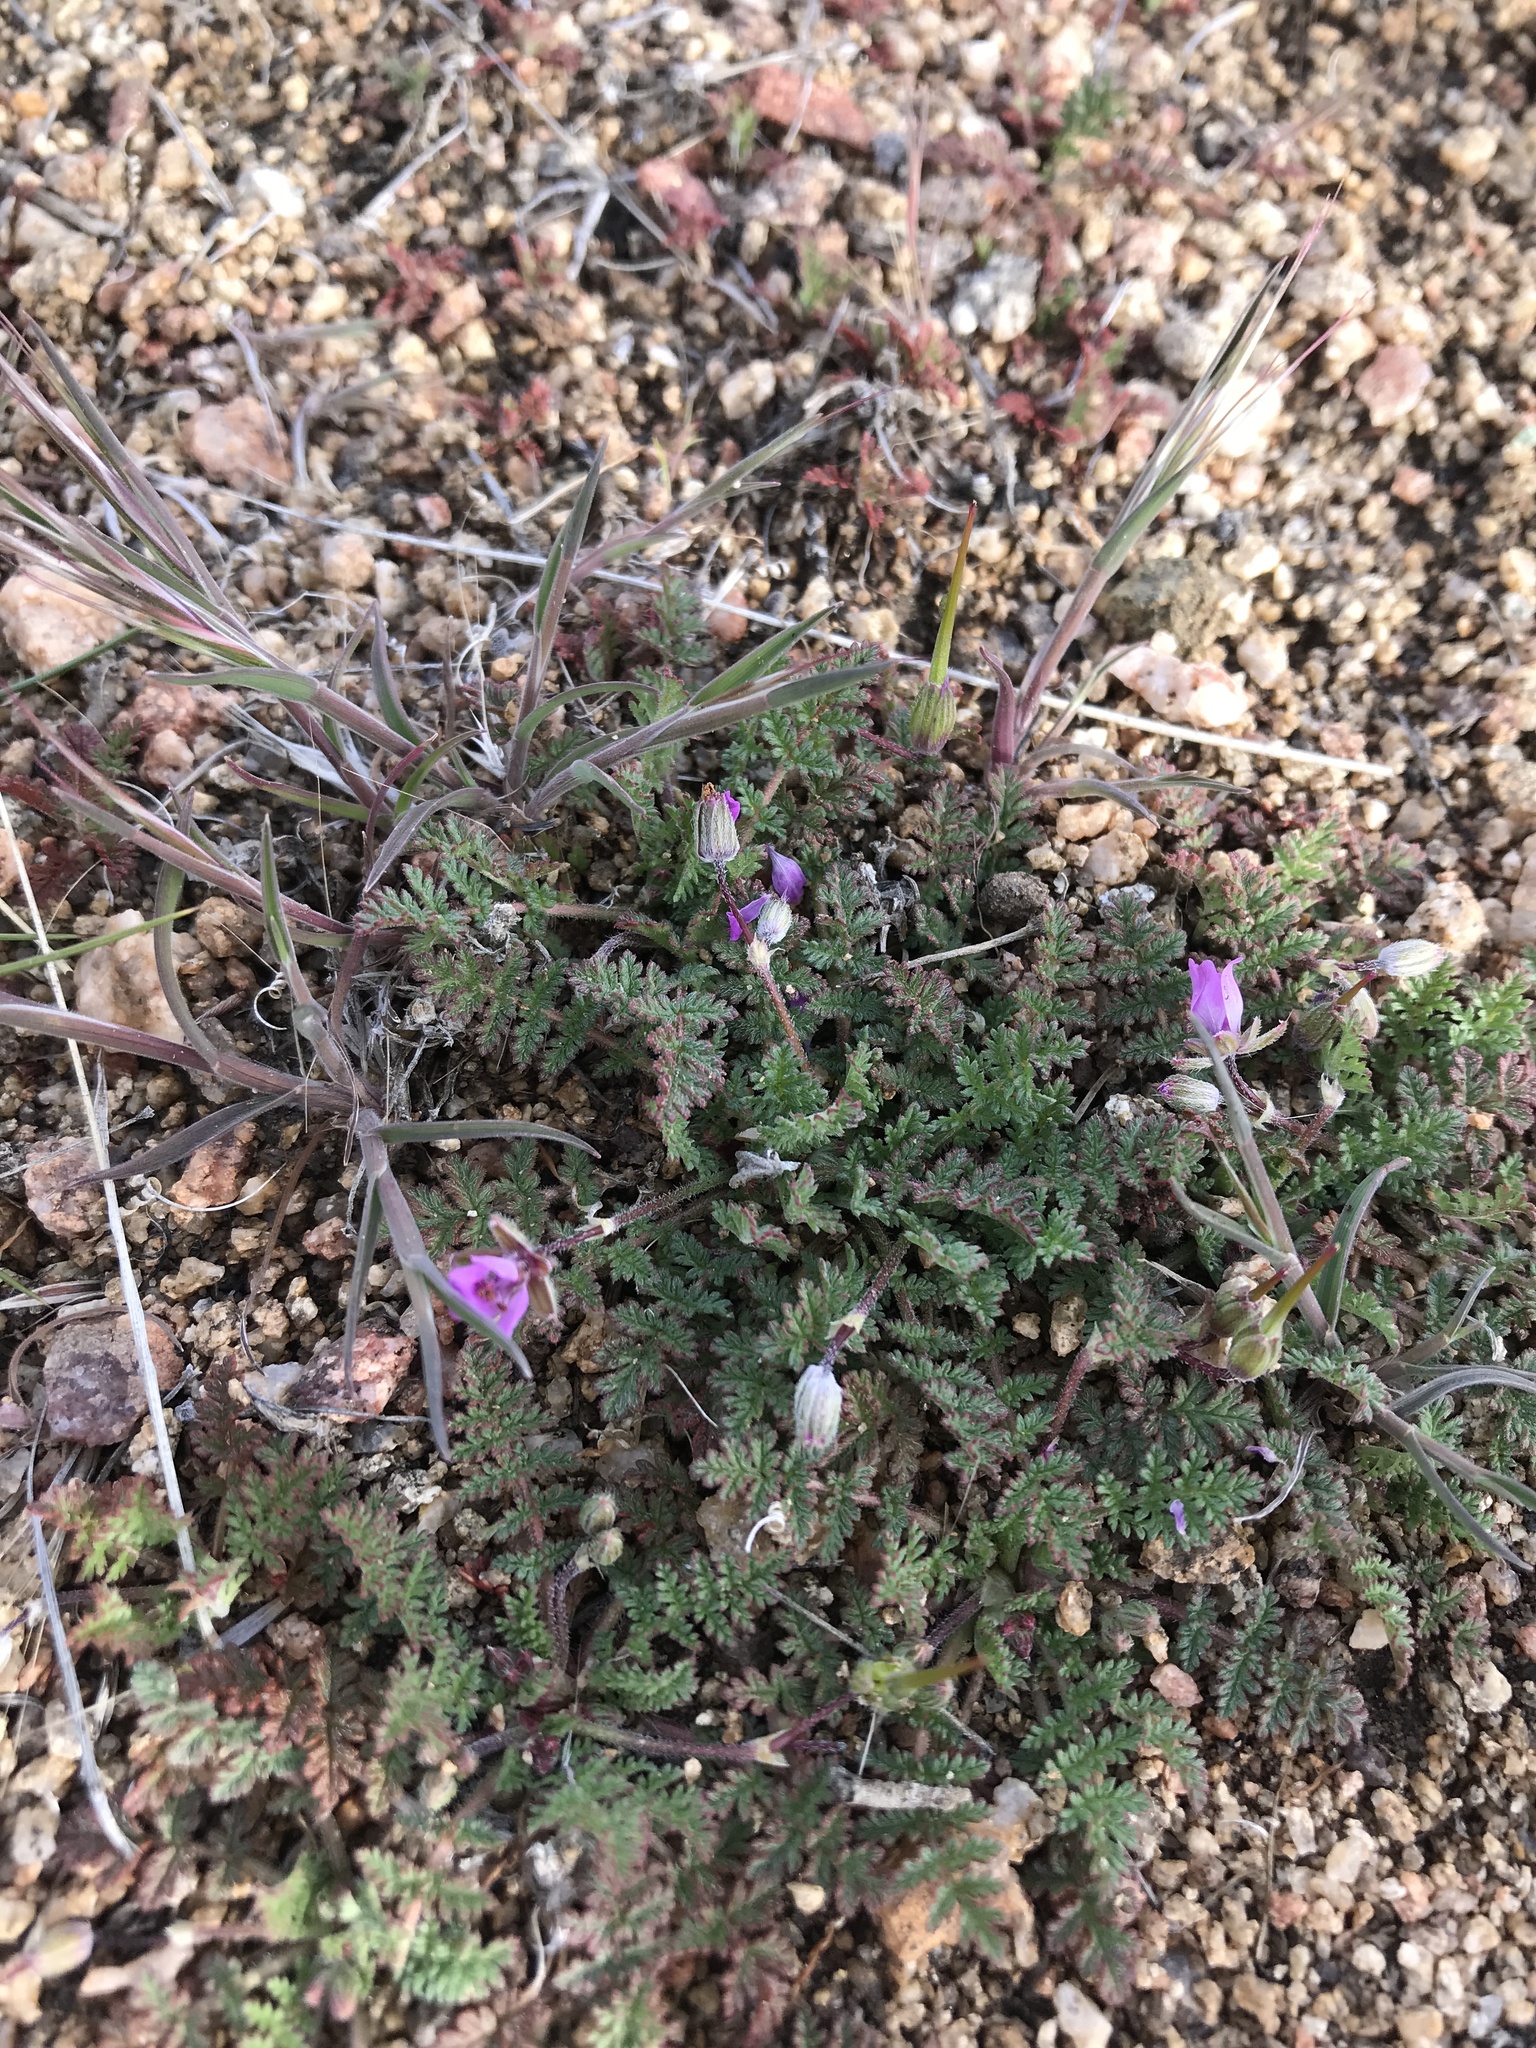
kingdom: Plantae
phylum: Tracheophyta
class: Magnoliopsida
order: Geraniales
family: Geraniaceae
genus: Erodium
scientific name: Erodium cicutarium
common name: Common stork's-bill
